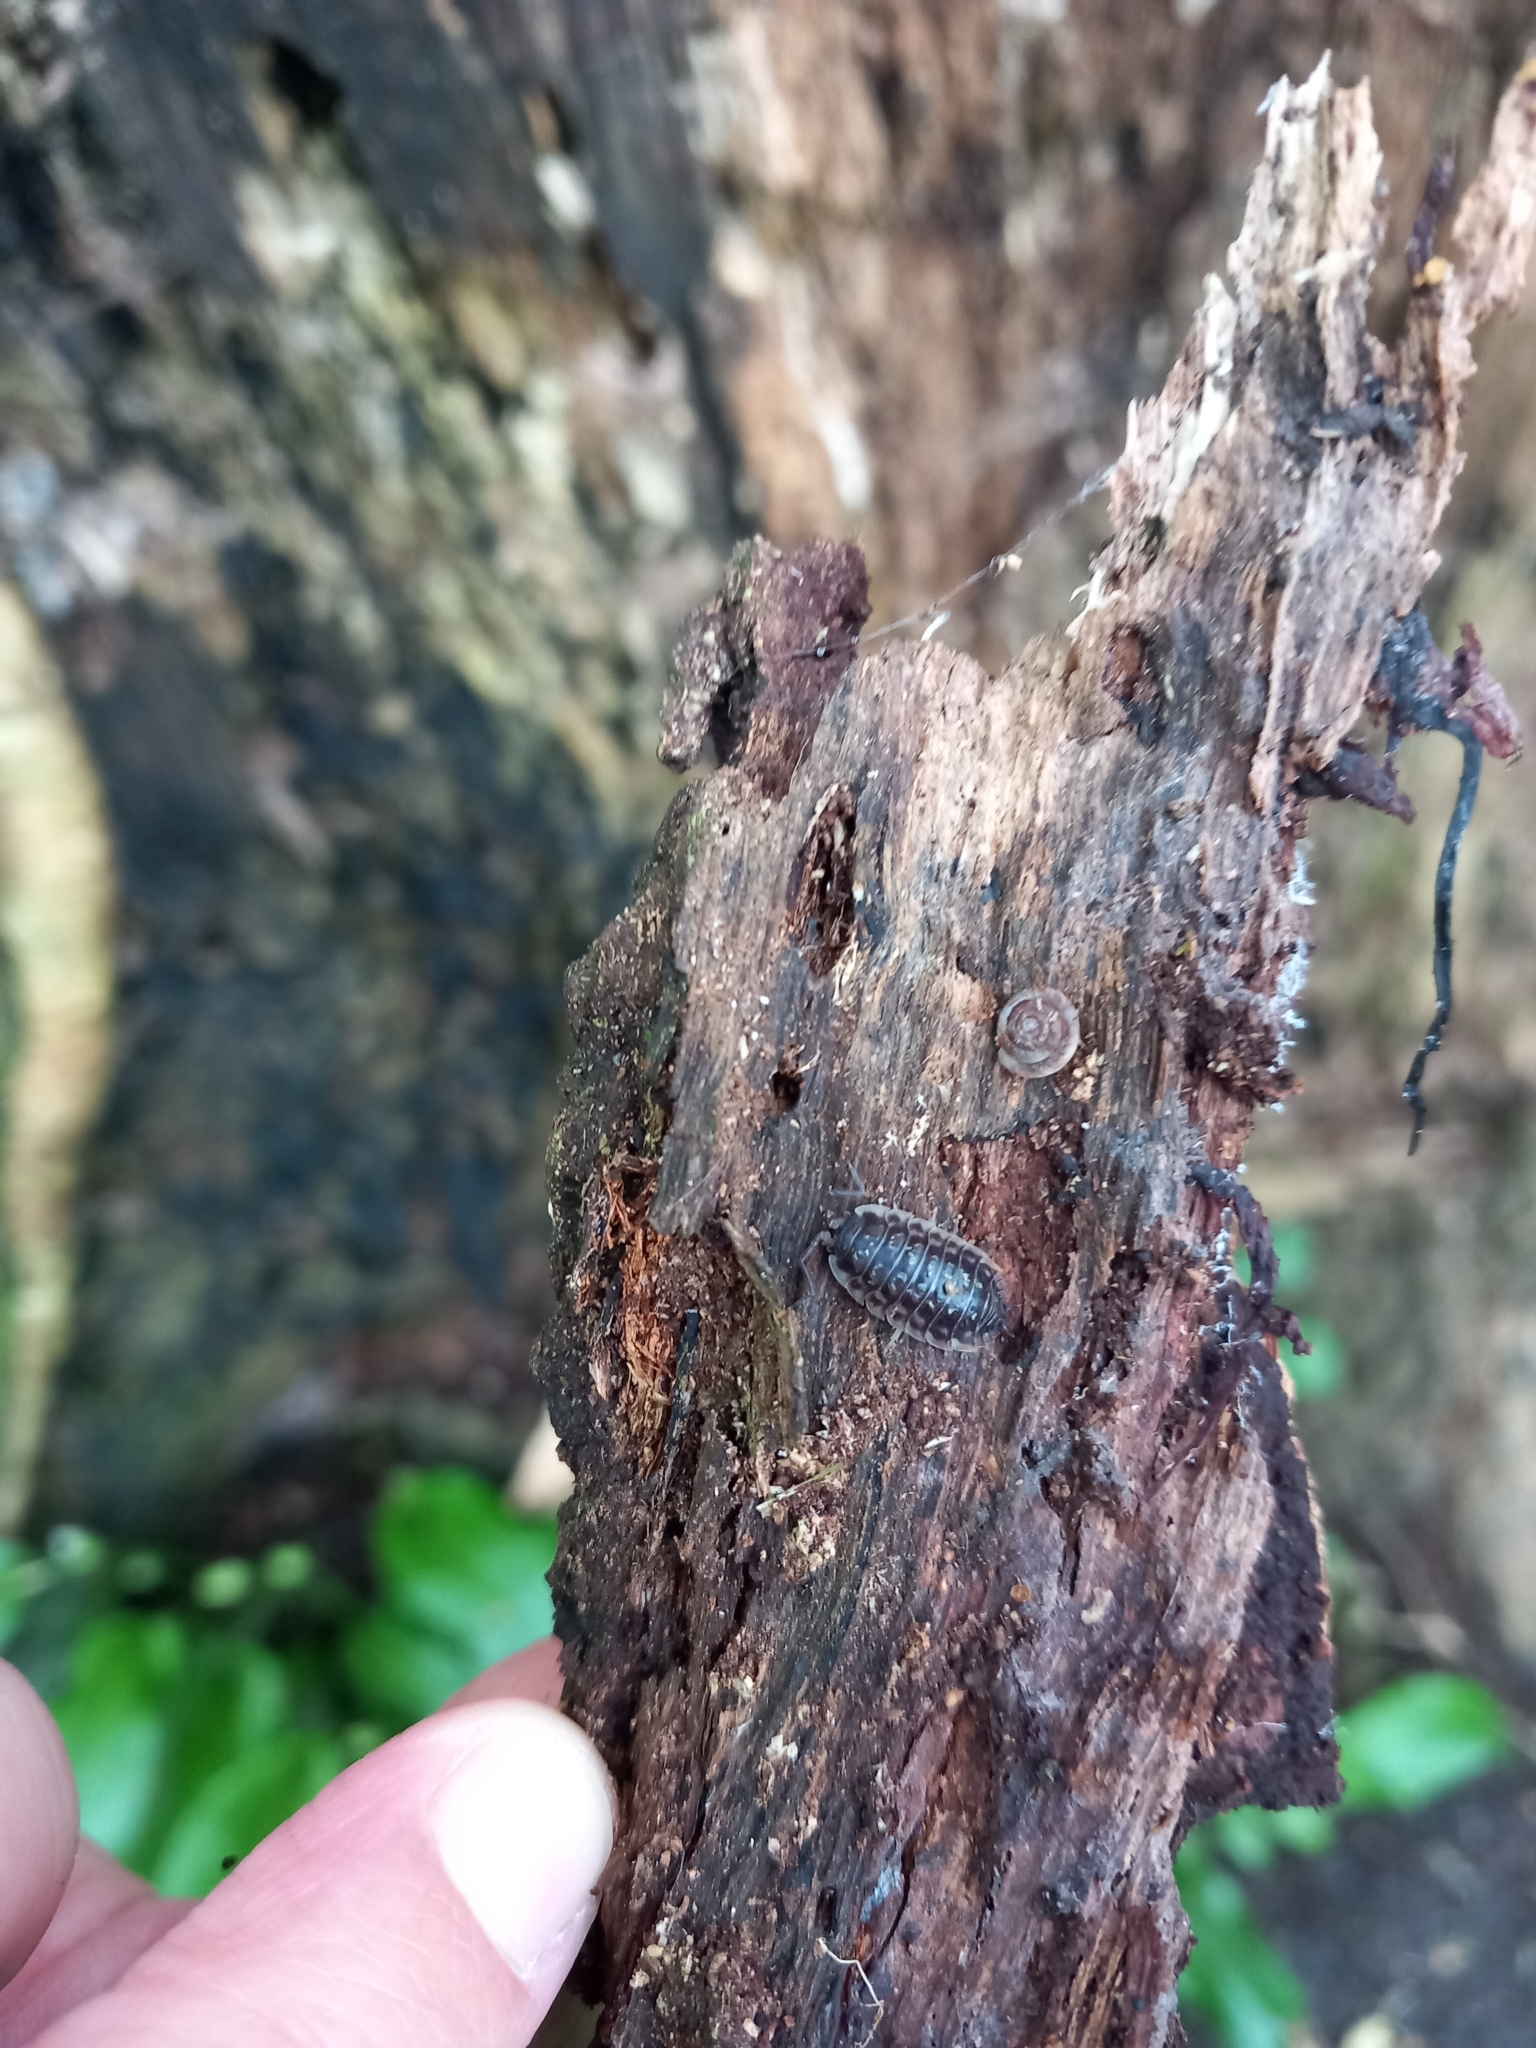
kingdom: Animalia
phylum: Arthropoda
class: Malacostraca
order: Isopoda
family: Oniscidae
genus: Oniscus
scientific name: Oniscus asellus
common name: Common shiny woodlouse
